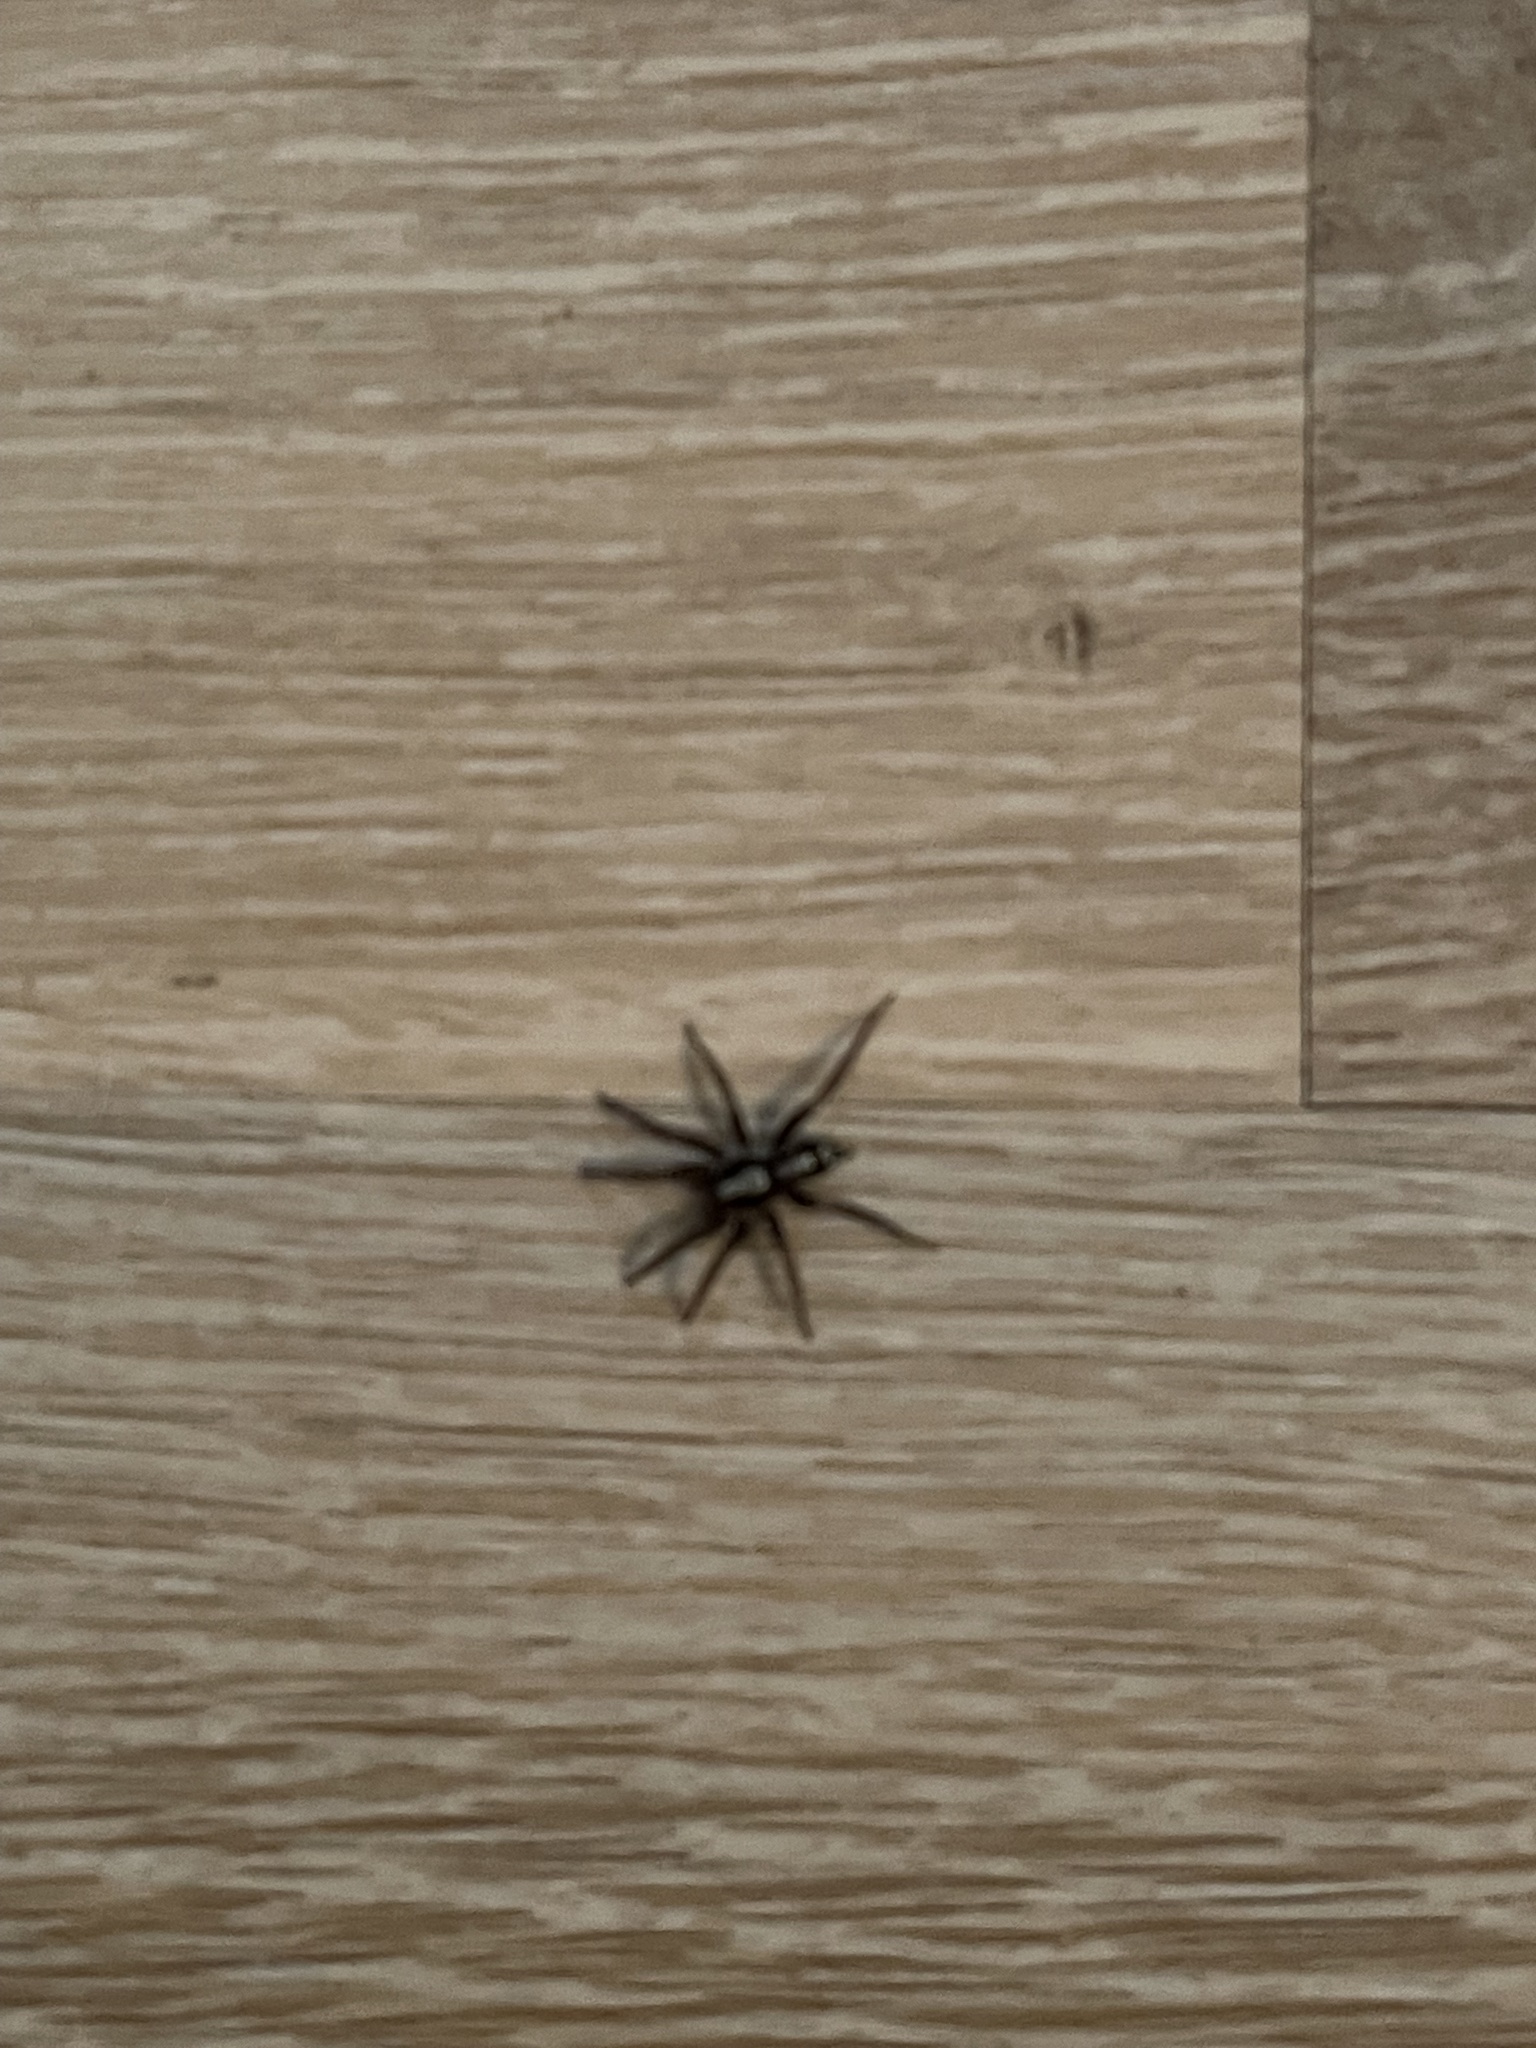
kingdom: Animalia
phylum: Arthropoda
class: Arachnida
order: Araneae
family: Gnaphosidae
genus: Herpyllus
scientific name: Herpyllus ecclesiasticus
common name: Eastern parson spider
